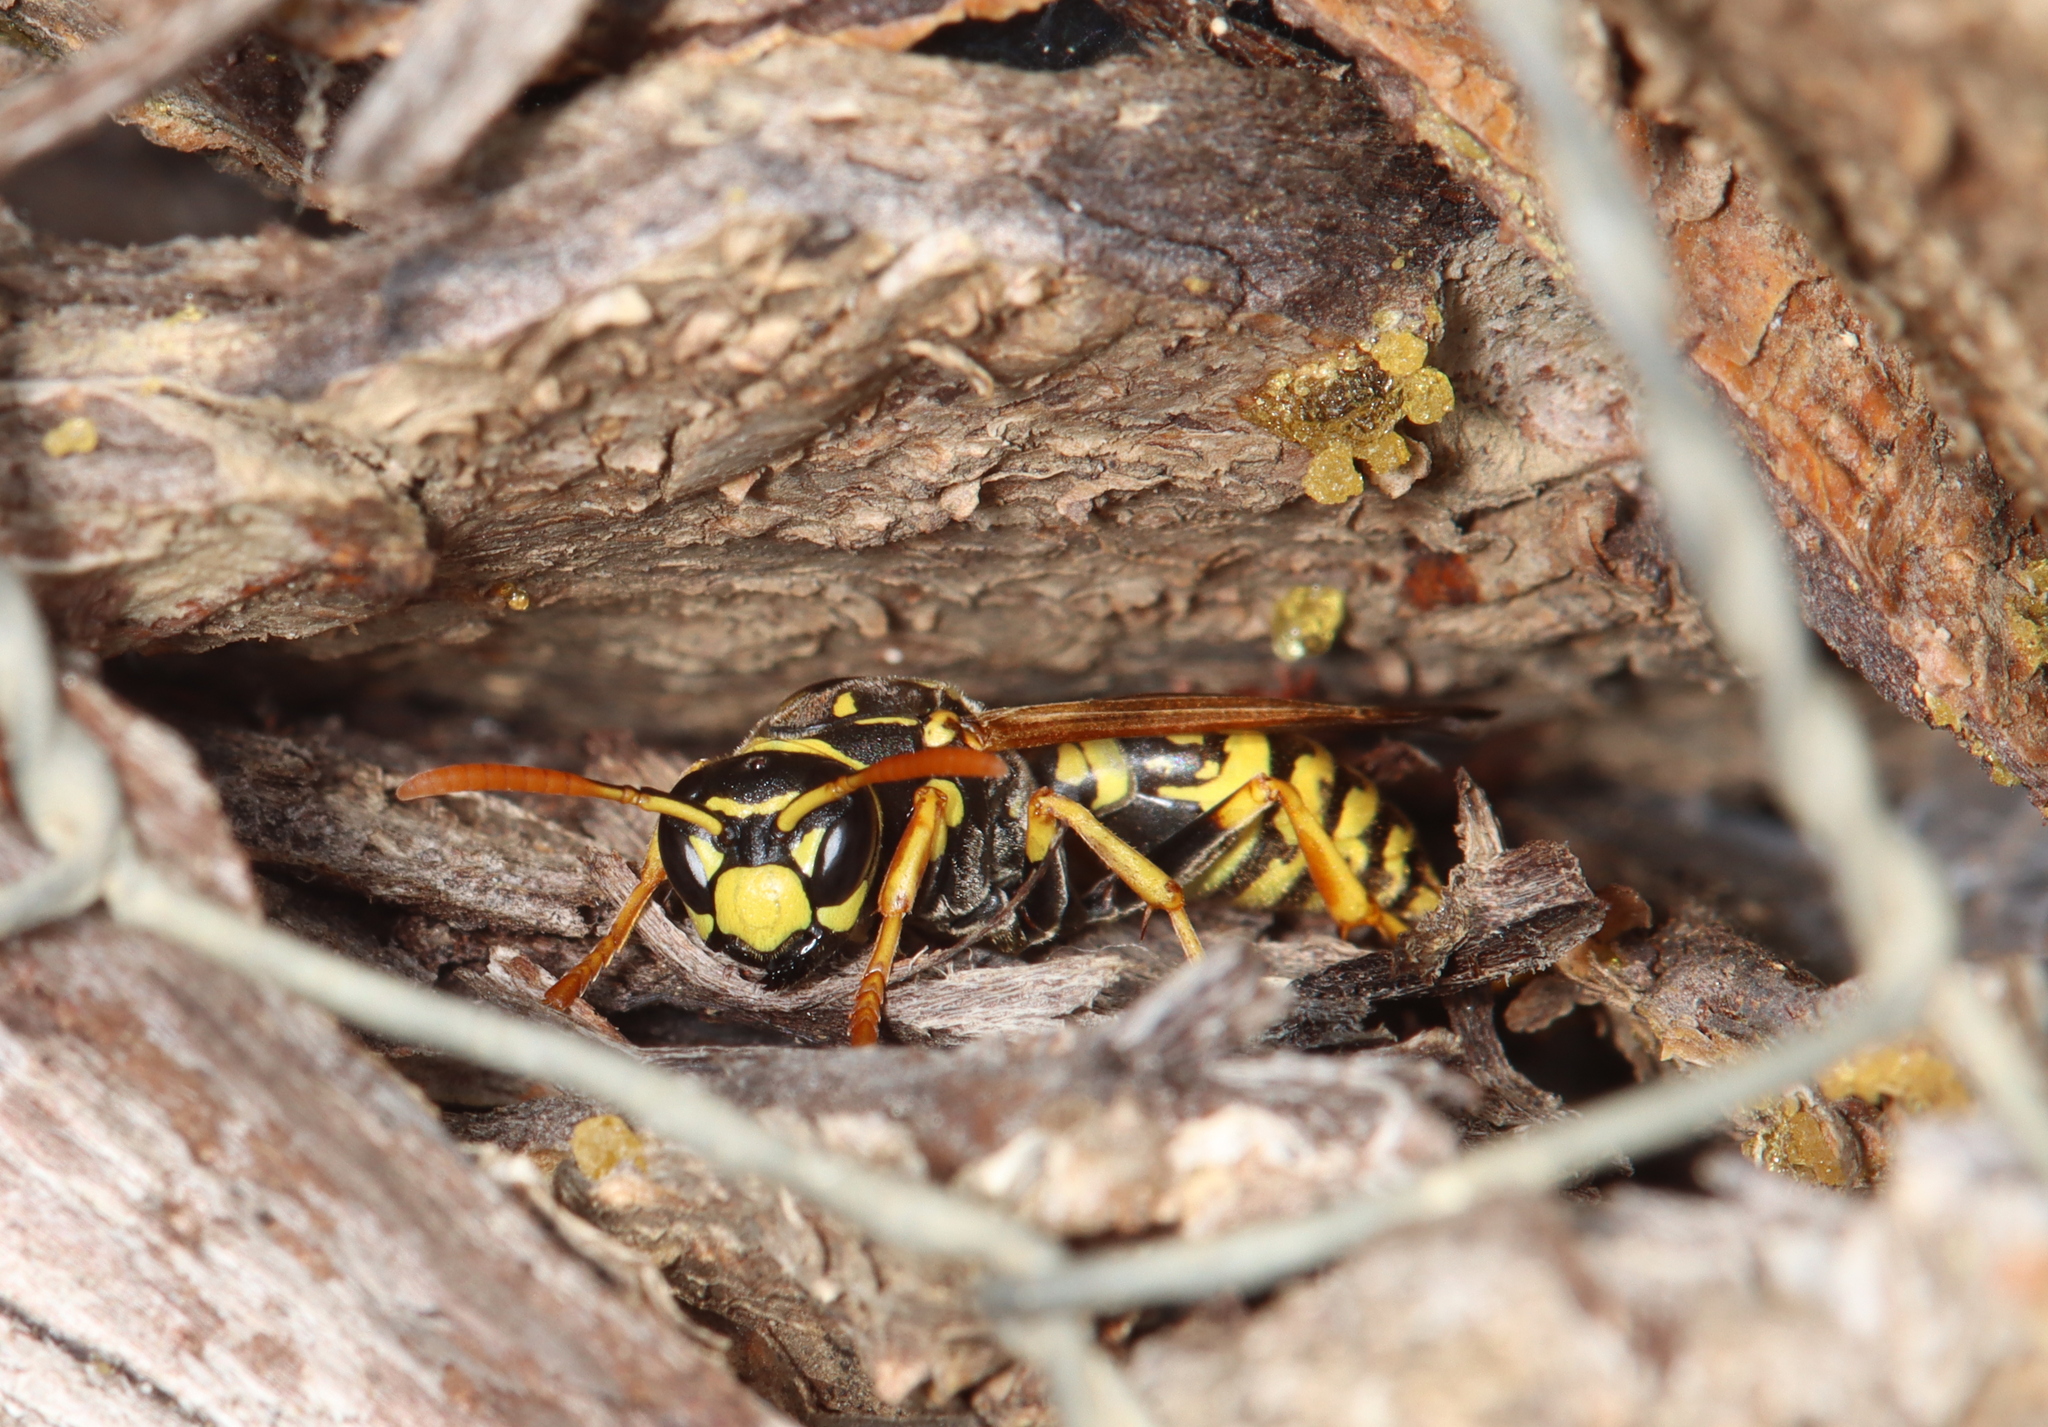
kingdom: Animalia
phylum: Arthropoda
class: Insecta
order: Hymenoptera
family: Eumenidae
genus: Polistes
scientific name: Polistes dominula
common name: Paper wasp
